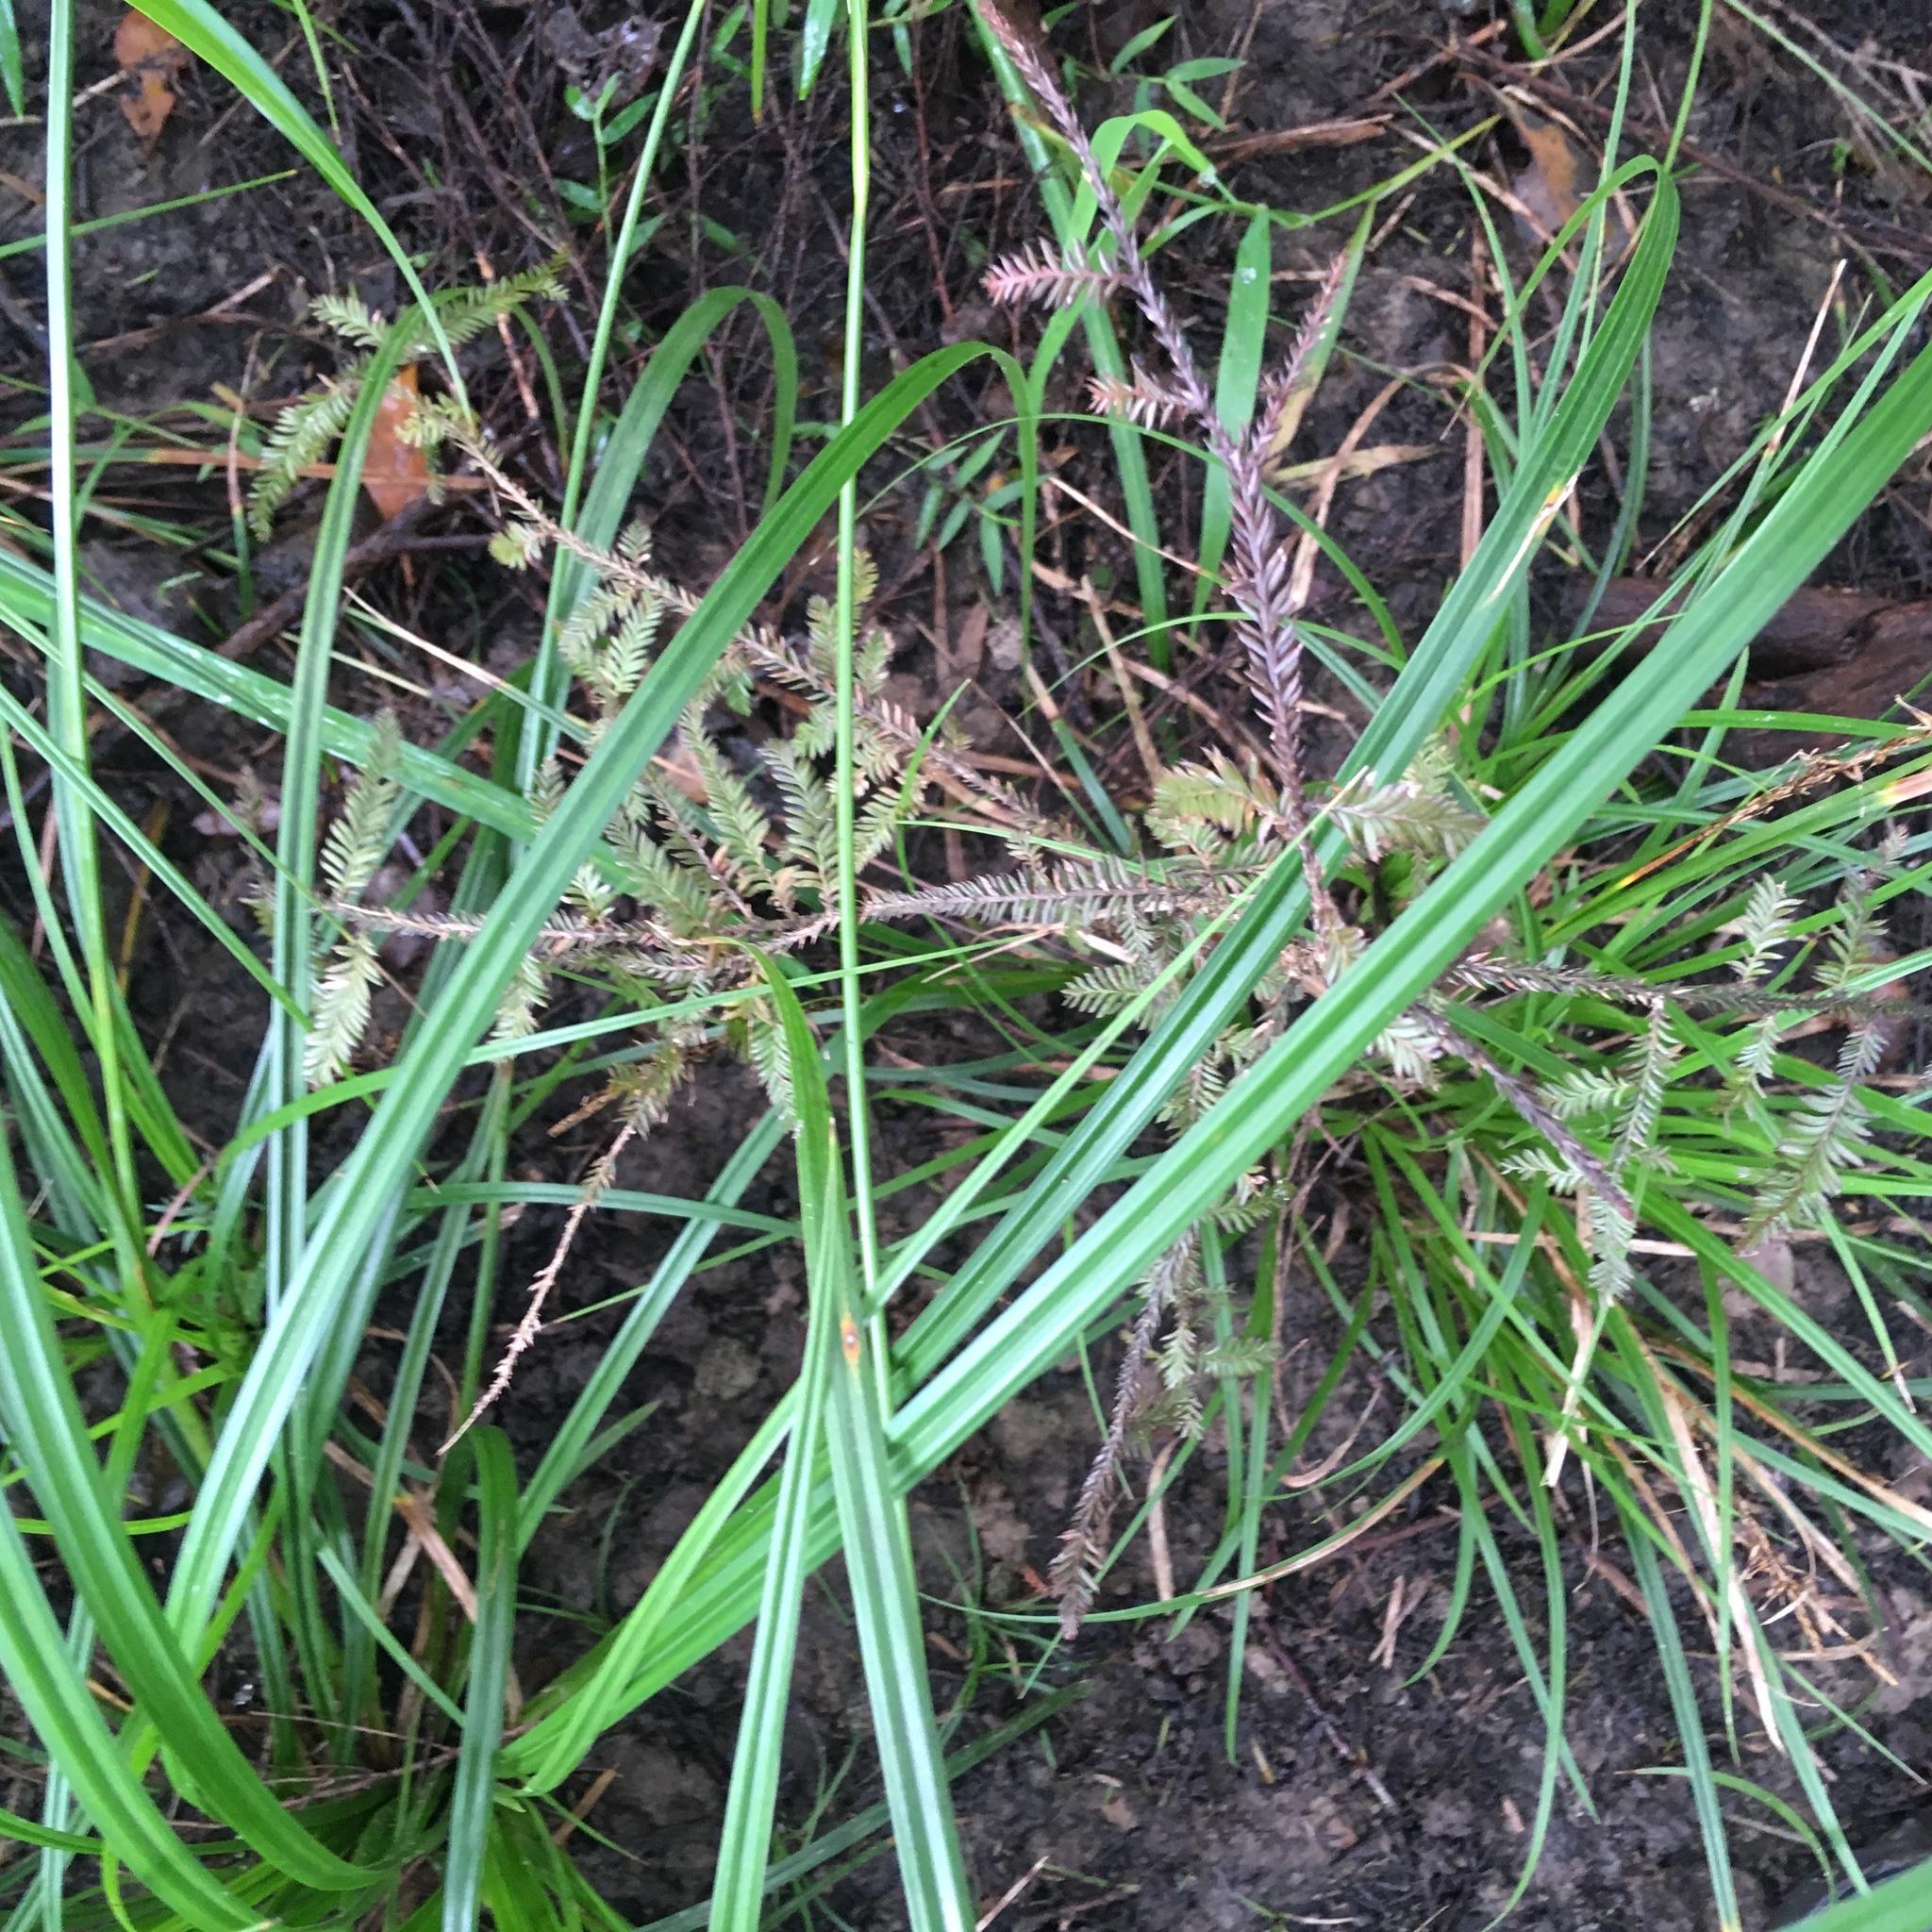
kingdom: Plantae
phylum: Tracheophyta
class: Pinopsida
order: Pinales
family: Podocarpaceae
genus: Dacrycarpus
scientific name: Dacrycarpus dacrydioides
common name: White pine
